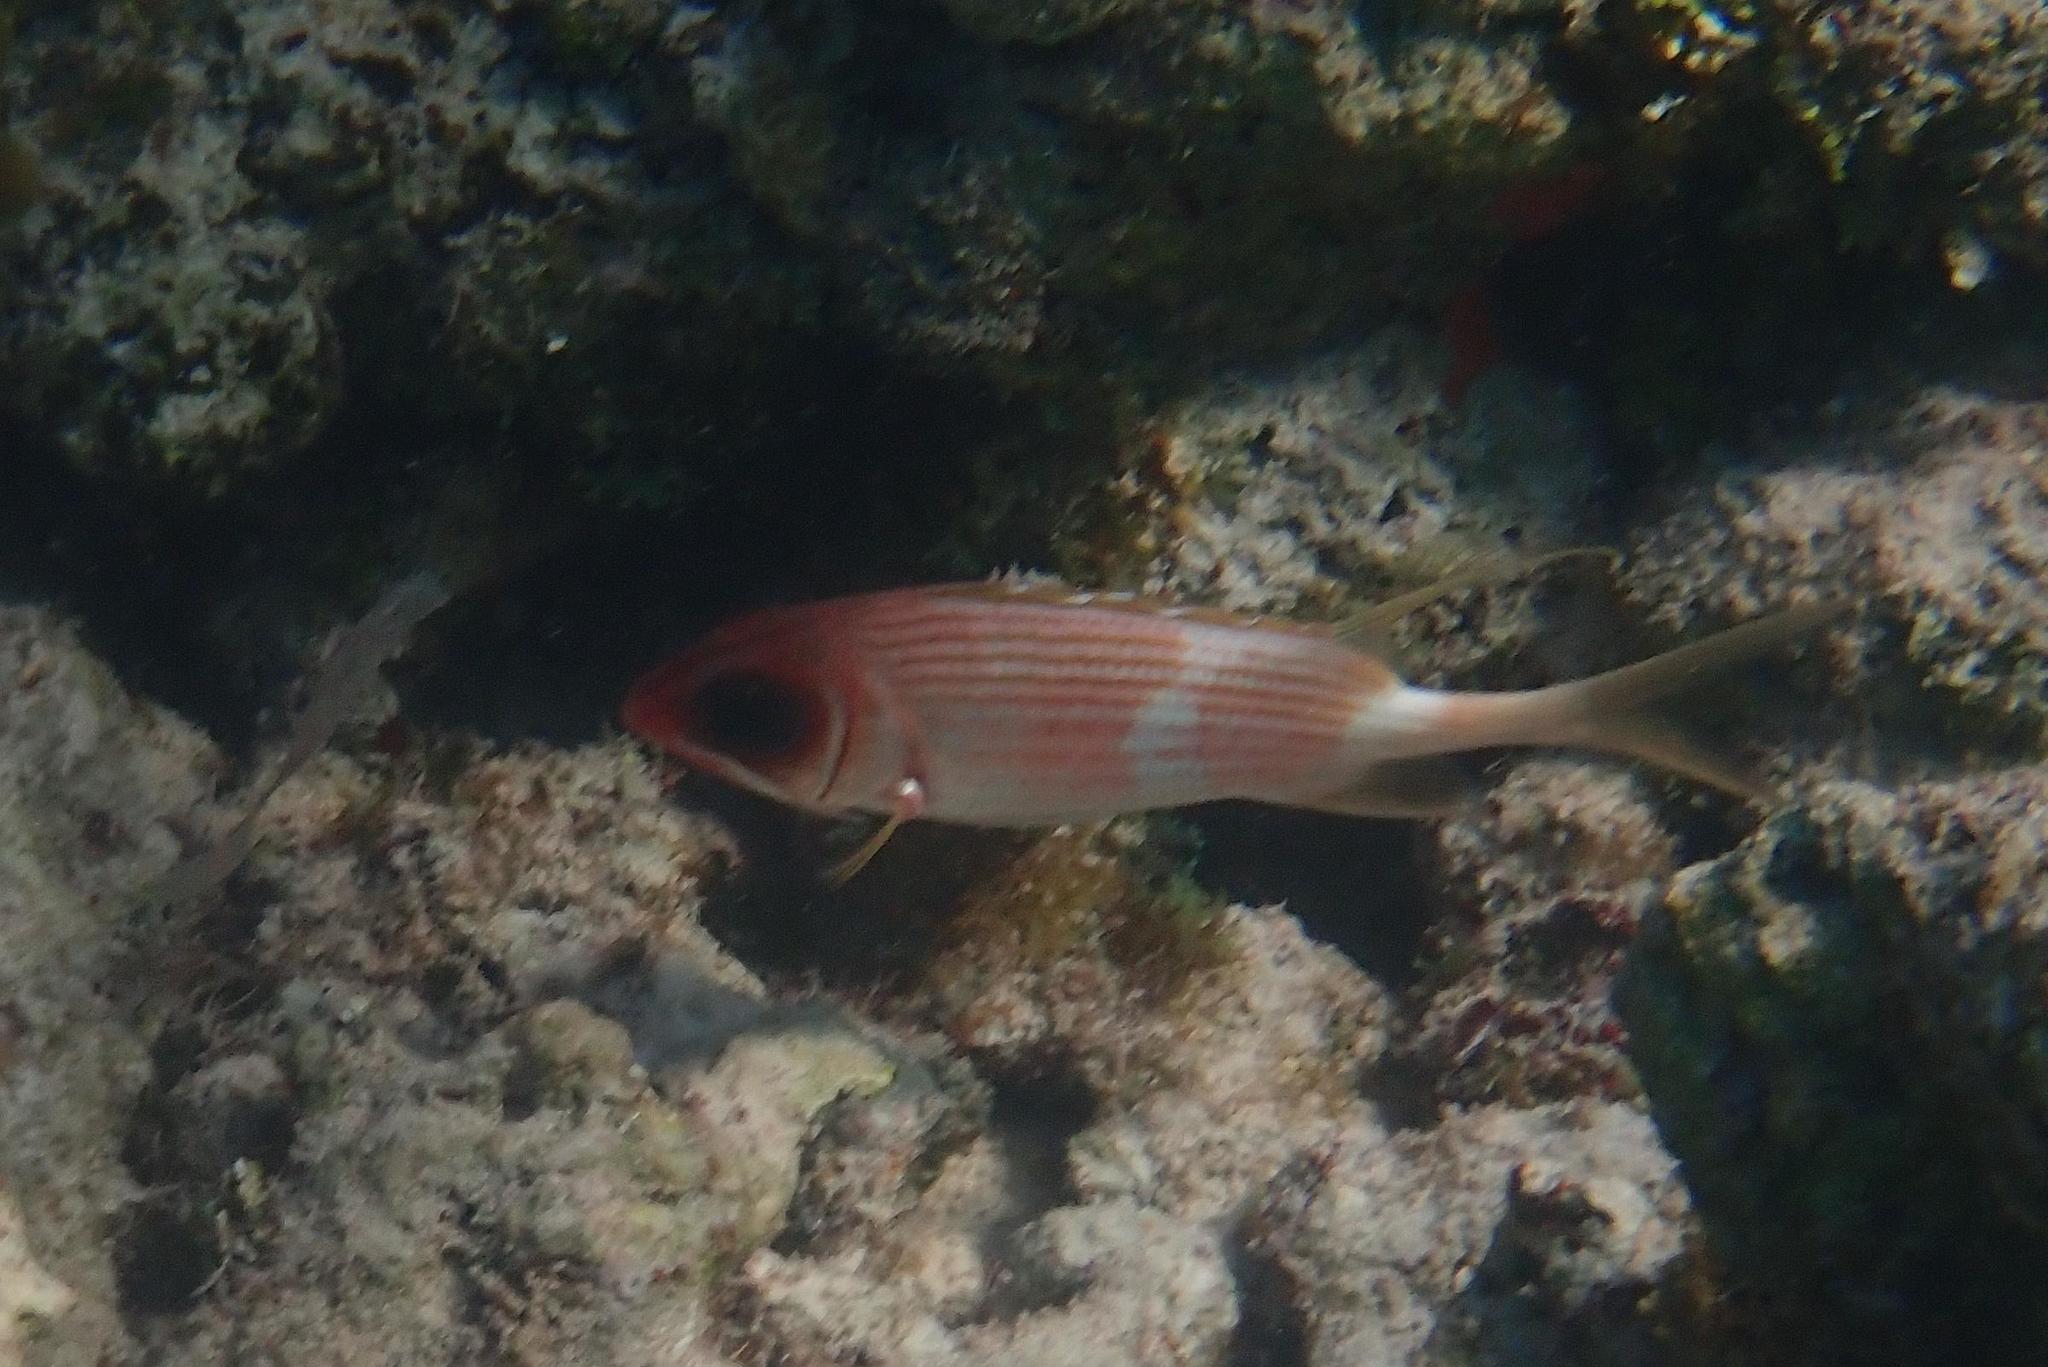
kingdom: Animalia
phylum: Chordata
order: Beryciformes
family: Holocentridae
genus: Holocentrus
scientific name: Holocentrus rufus
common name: Longspine squirrelfish
